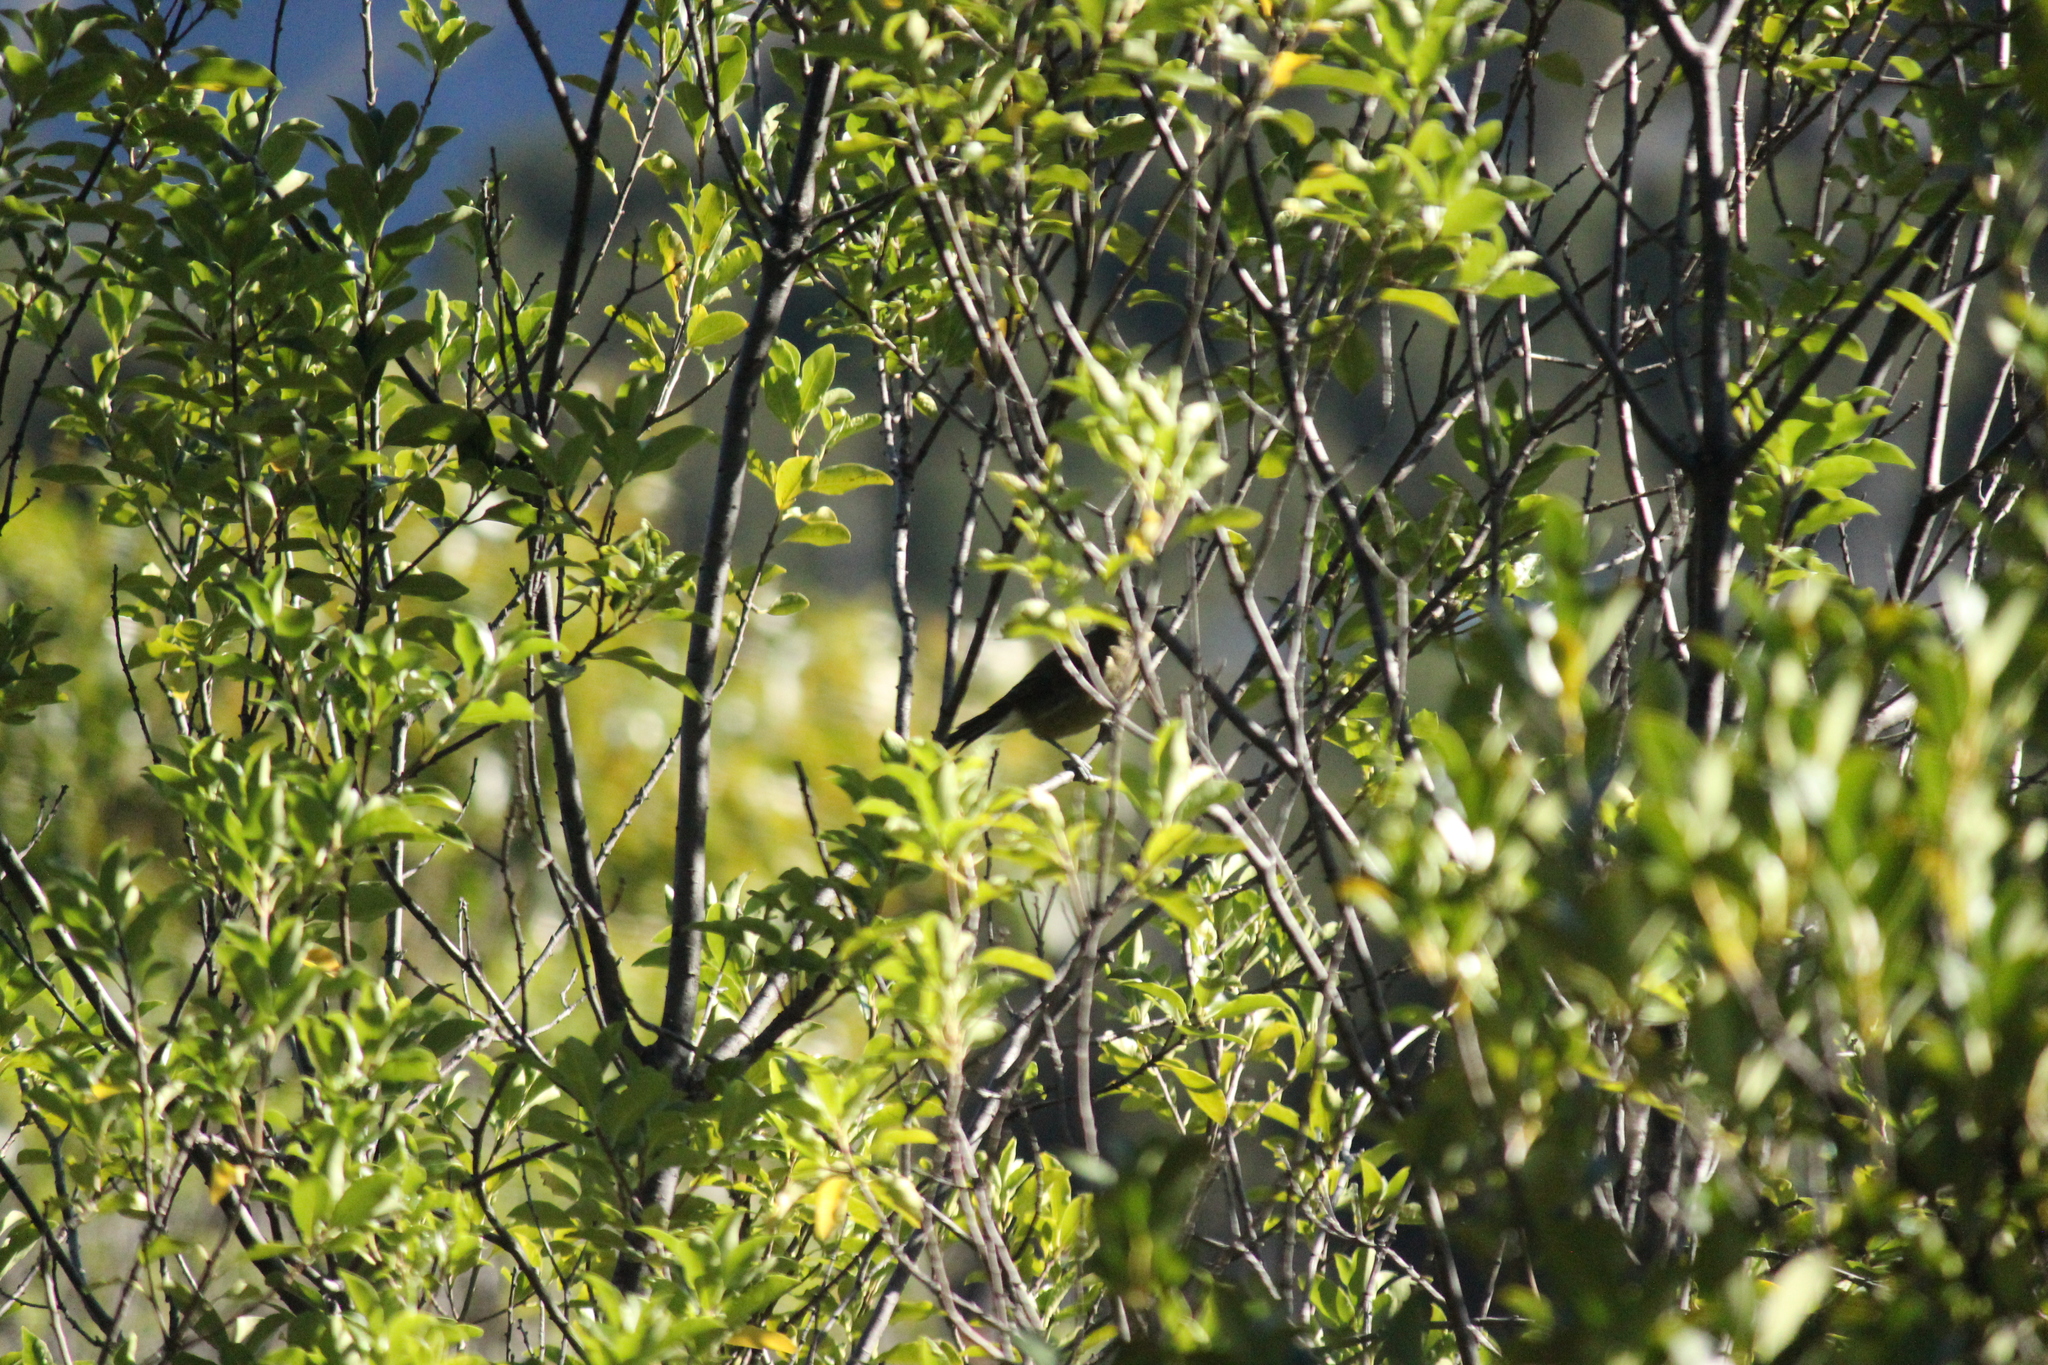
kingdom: Animalia
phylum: Chordata
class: Aves
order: Passeriformes
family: Meliphagidae
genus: Anthornis
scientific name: Anthornis melanura
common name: New zealand bellbird
